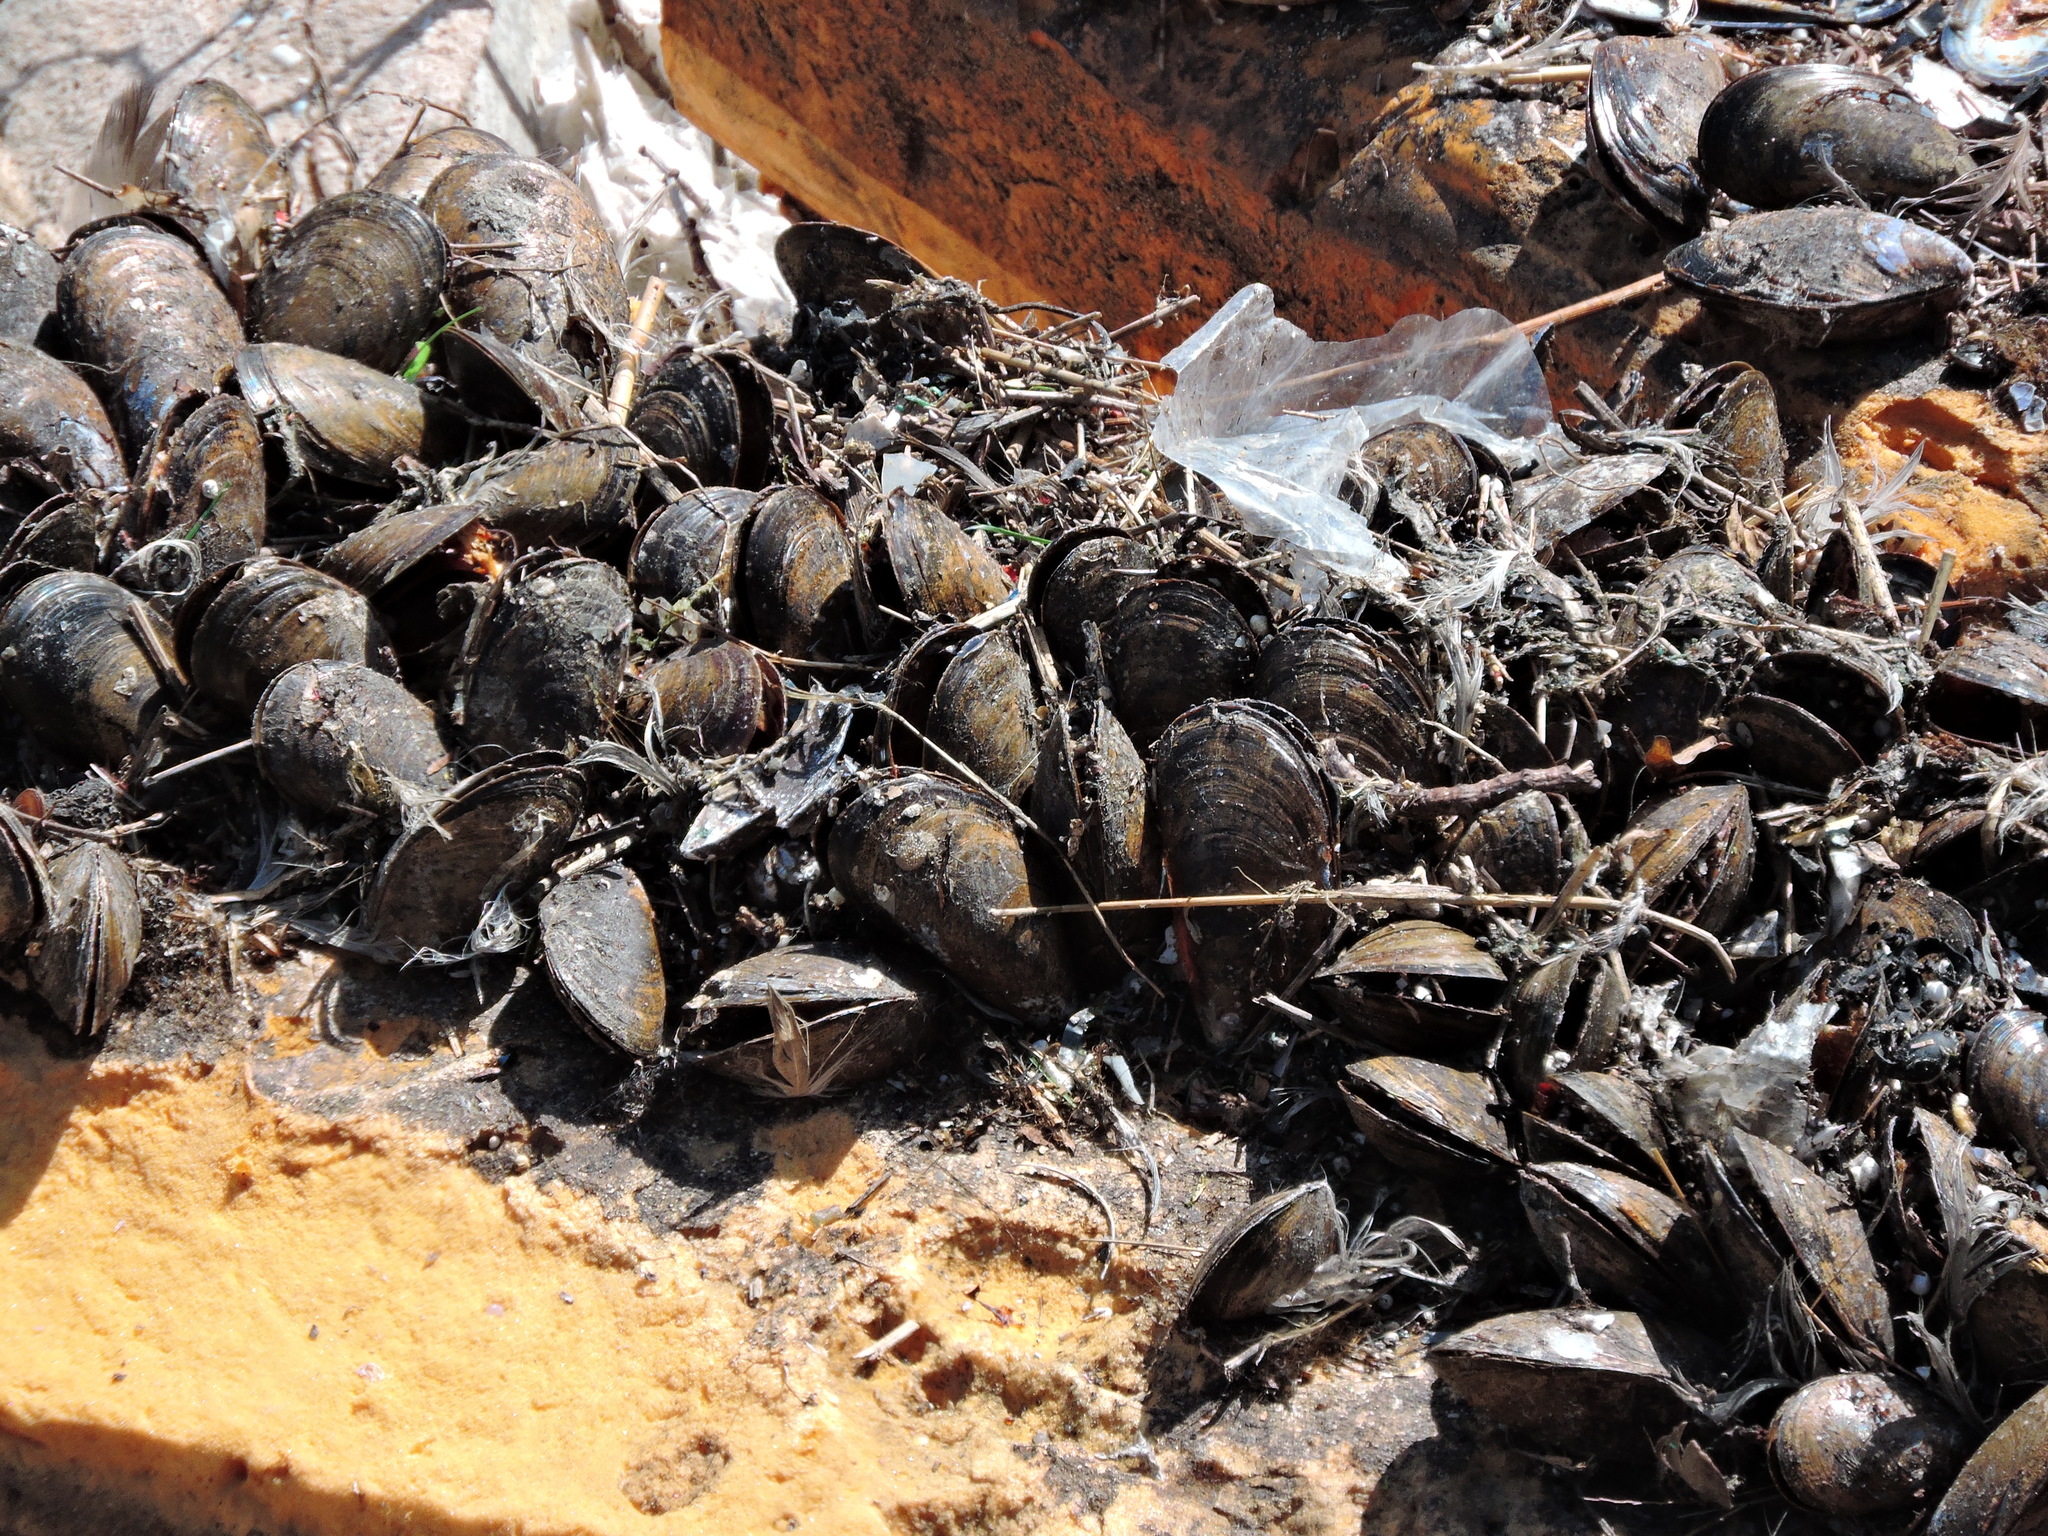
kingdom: Animalia
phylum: Mollusca
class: Bivalvia
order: Mytilida
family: Mytilidae
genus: Mytilus
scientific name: Mytilus edulis
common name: Blue mussel
